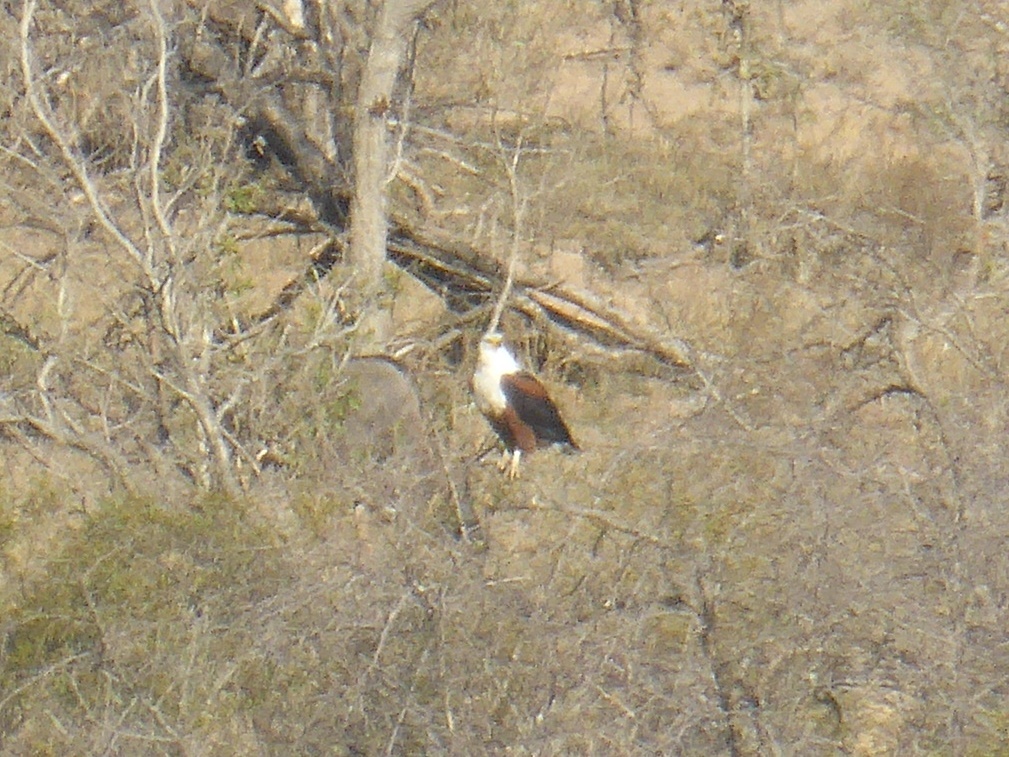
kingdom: Animalia
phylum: Chordata
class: Aves
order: Accipitriformes
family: Accipitridae
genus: Haliaeetus
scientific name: Haliaeetus vocifer
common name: African fish eagle
